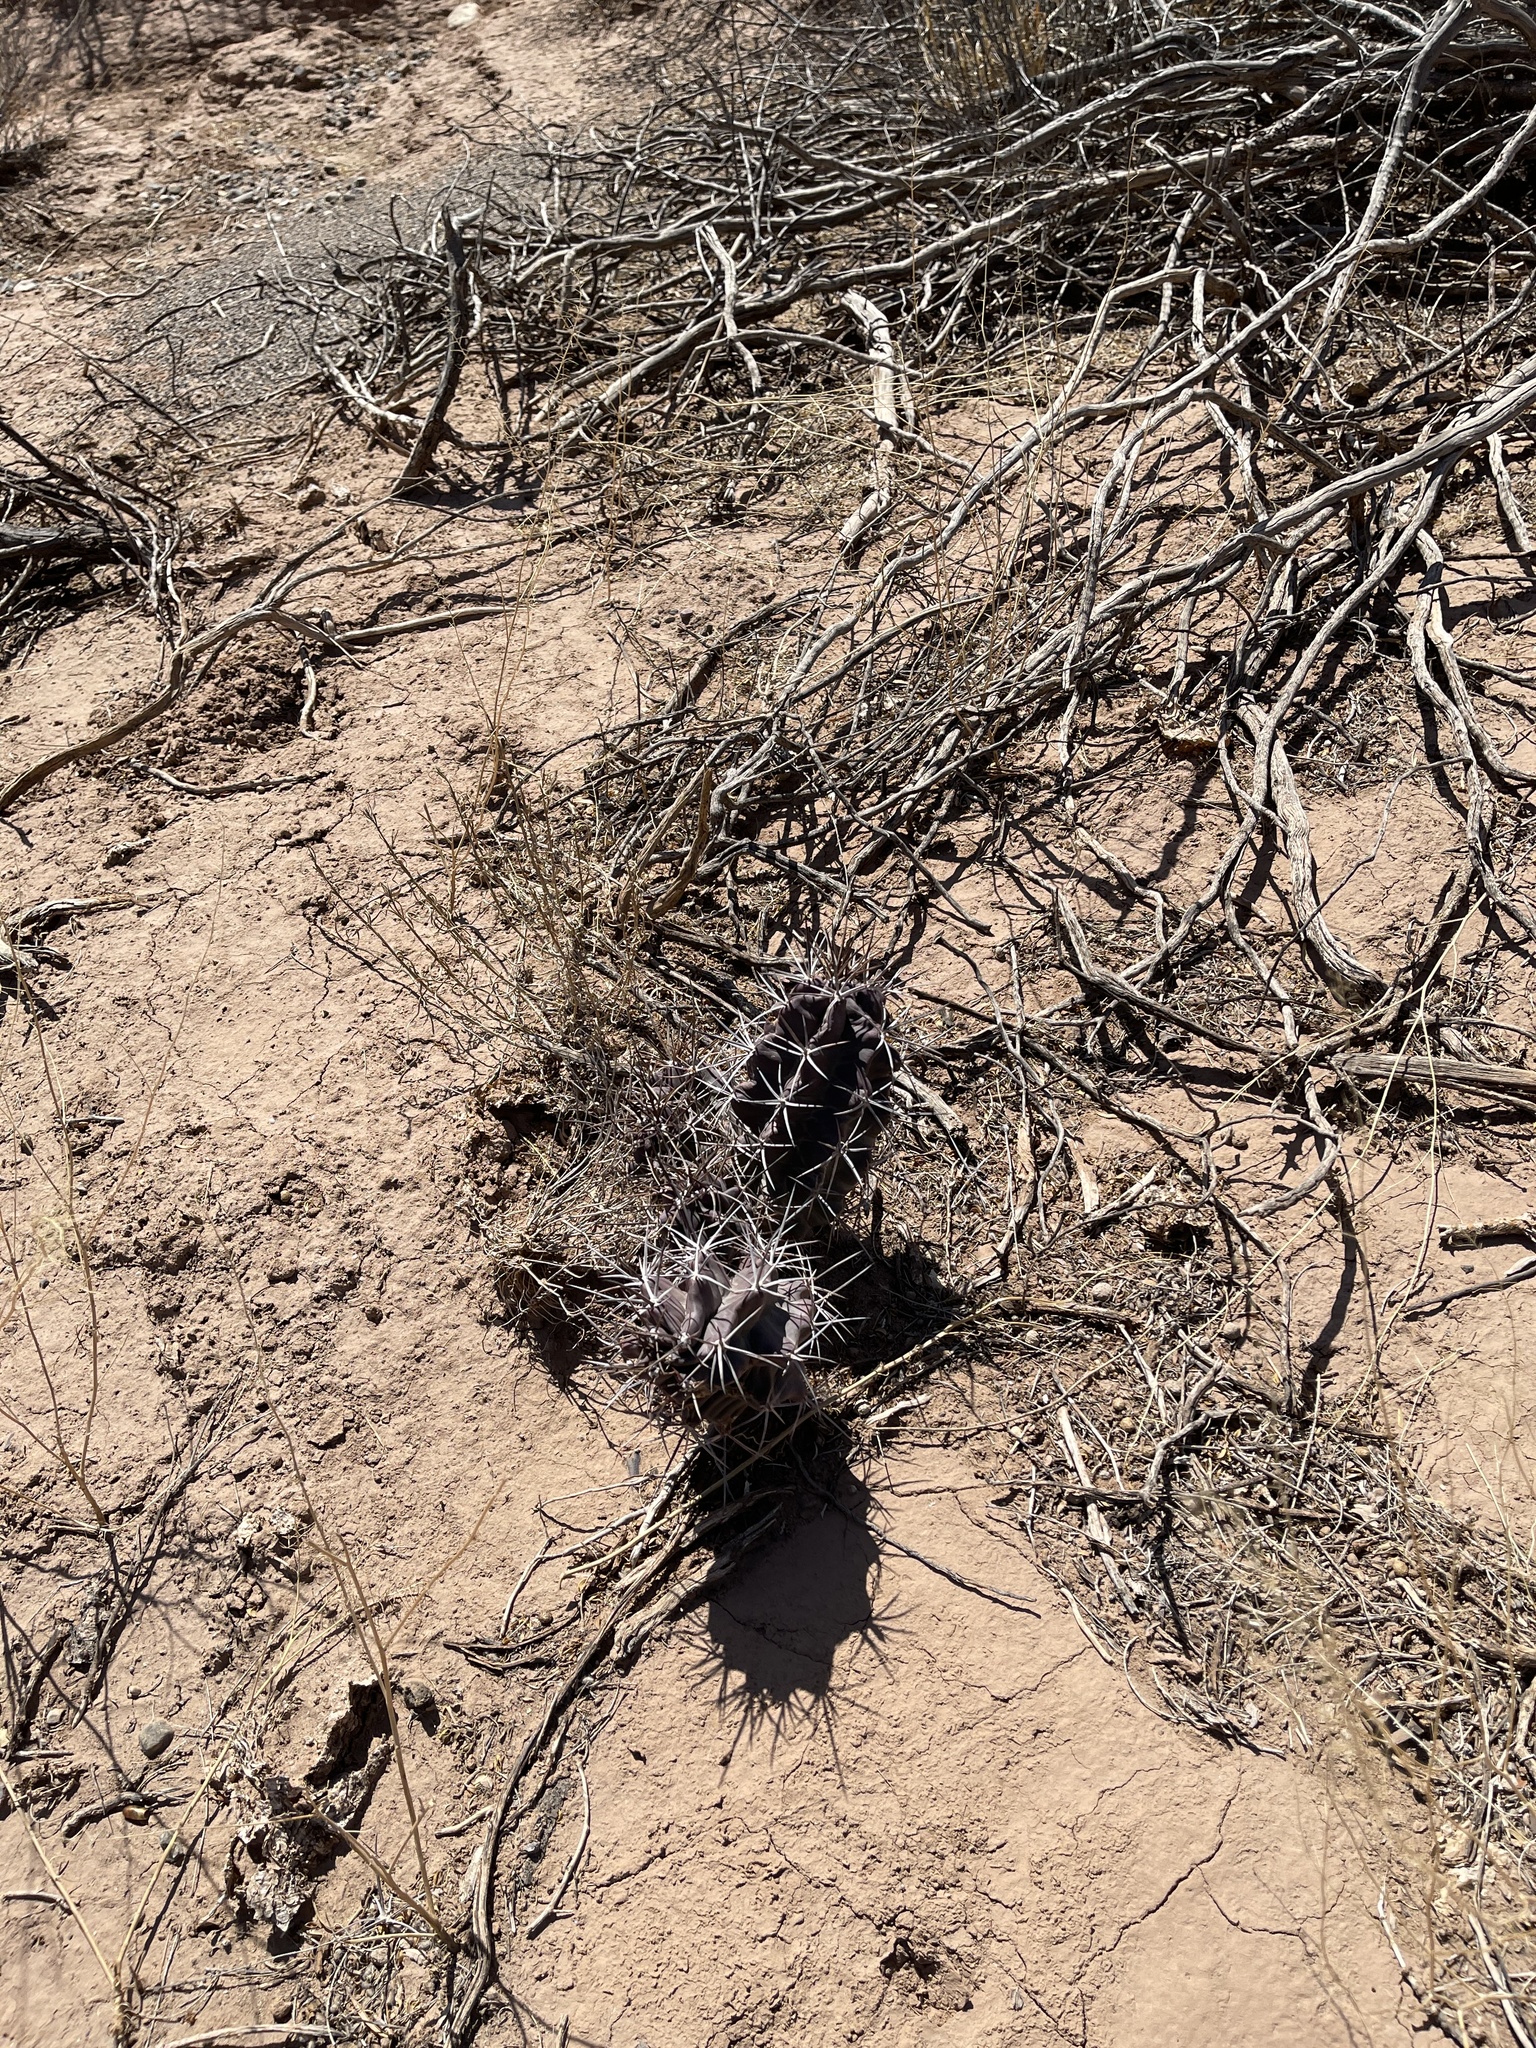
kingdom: Plantae
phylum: Tracheophyta
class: Magnoliopsida
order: Caryophyllales
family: Cactaceae
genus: Echinocereus
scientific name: Echinocereus triglochidiatus
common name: Claretcup hedgehog
